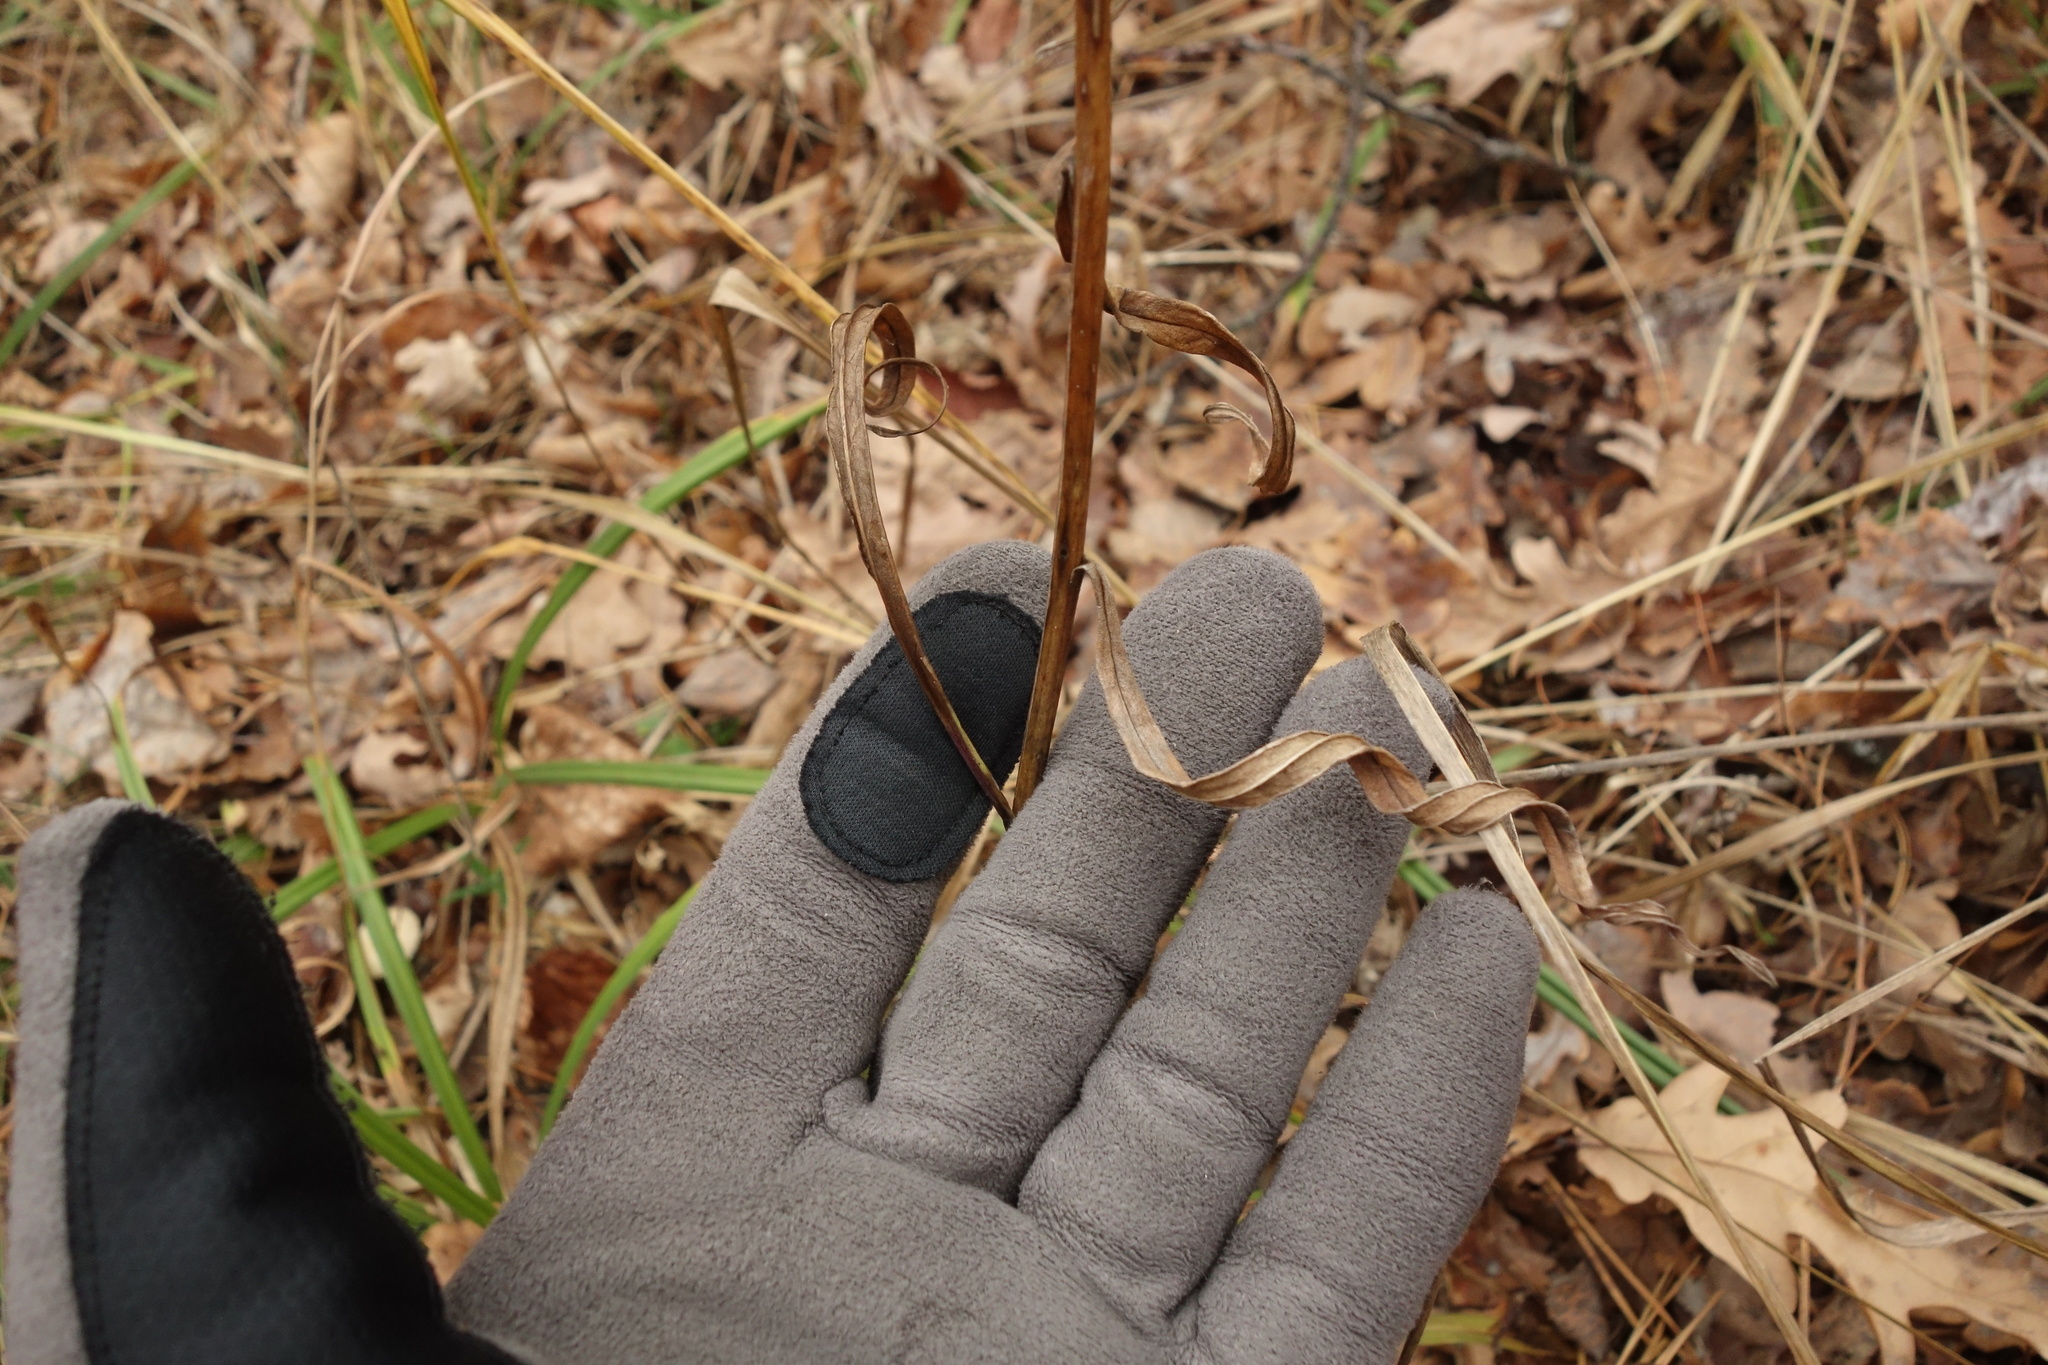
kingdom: Plantae
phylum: Tracheophyta
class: Magnoliopsida
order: Asterales
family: Campanulaceae
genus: Campanula
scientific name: Campanula persicifolia
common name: Peach-leaved bellflower
